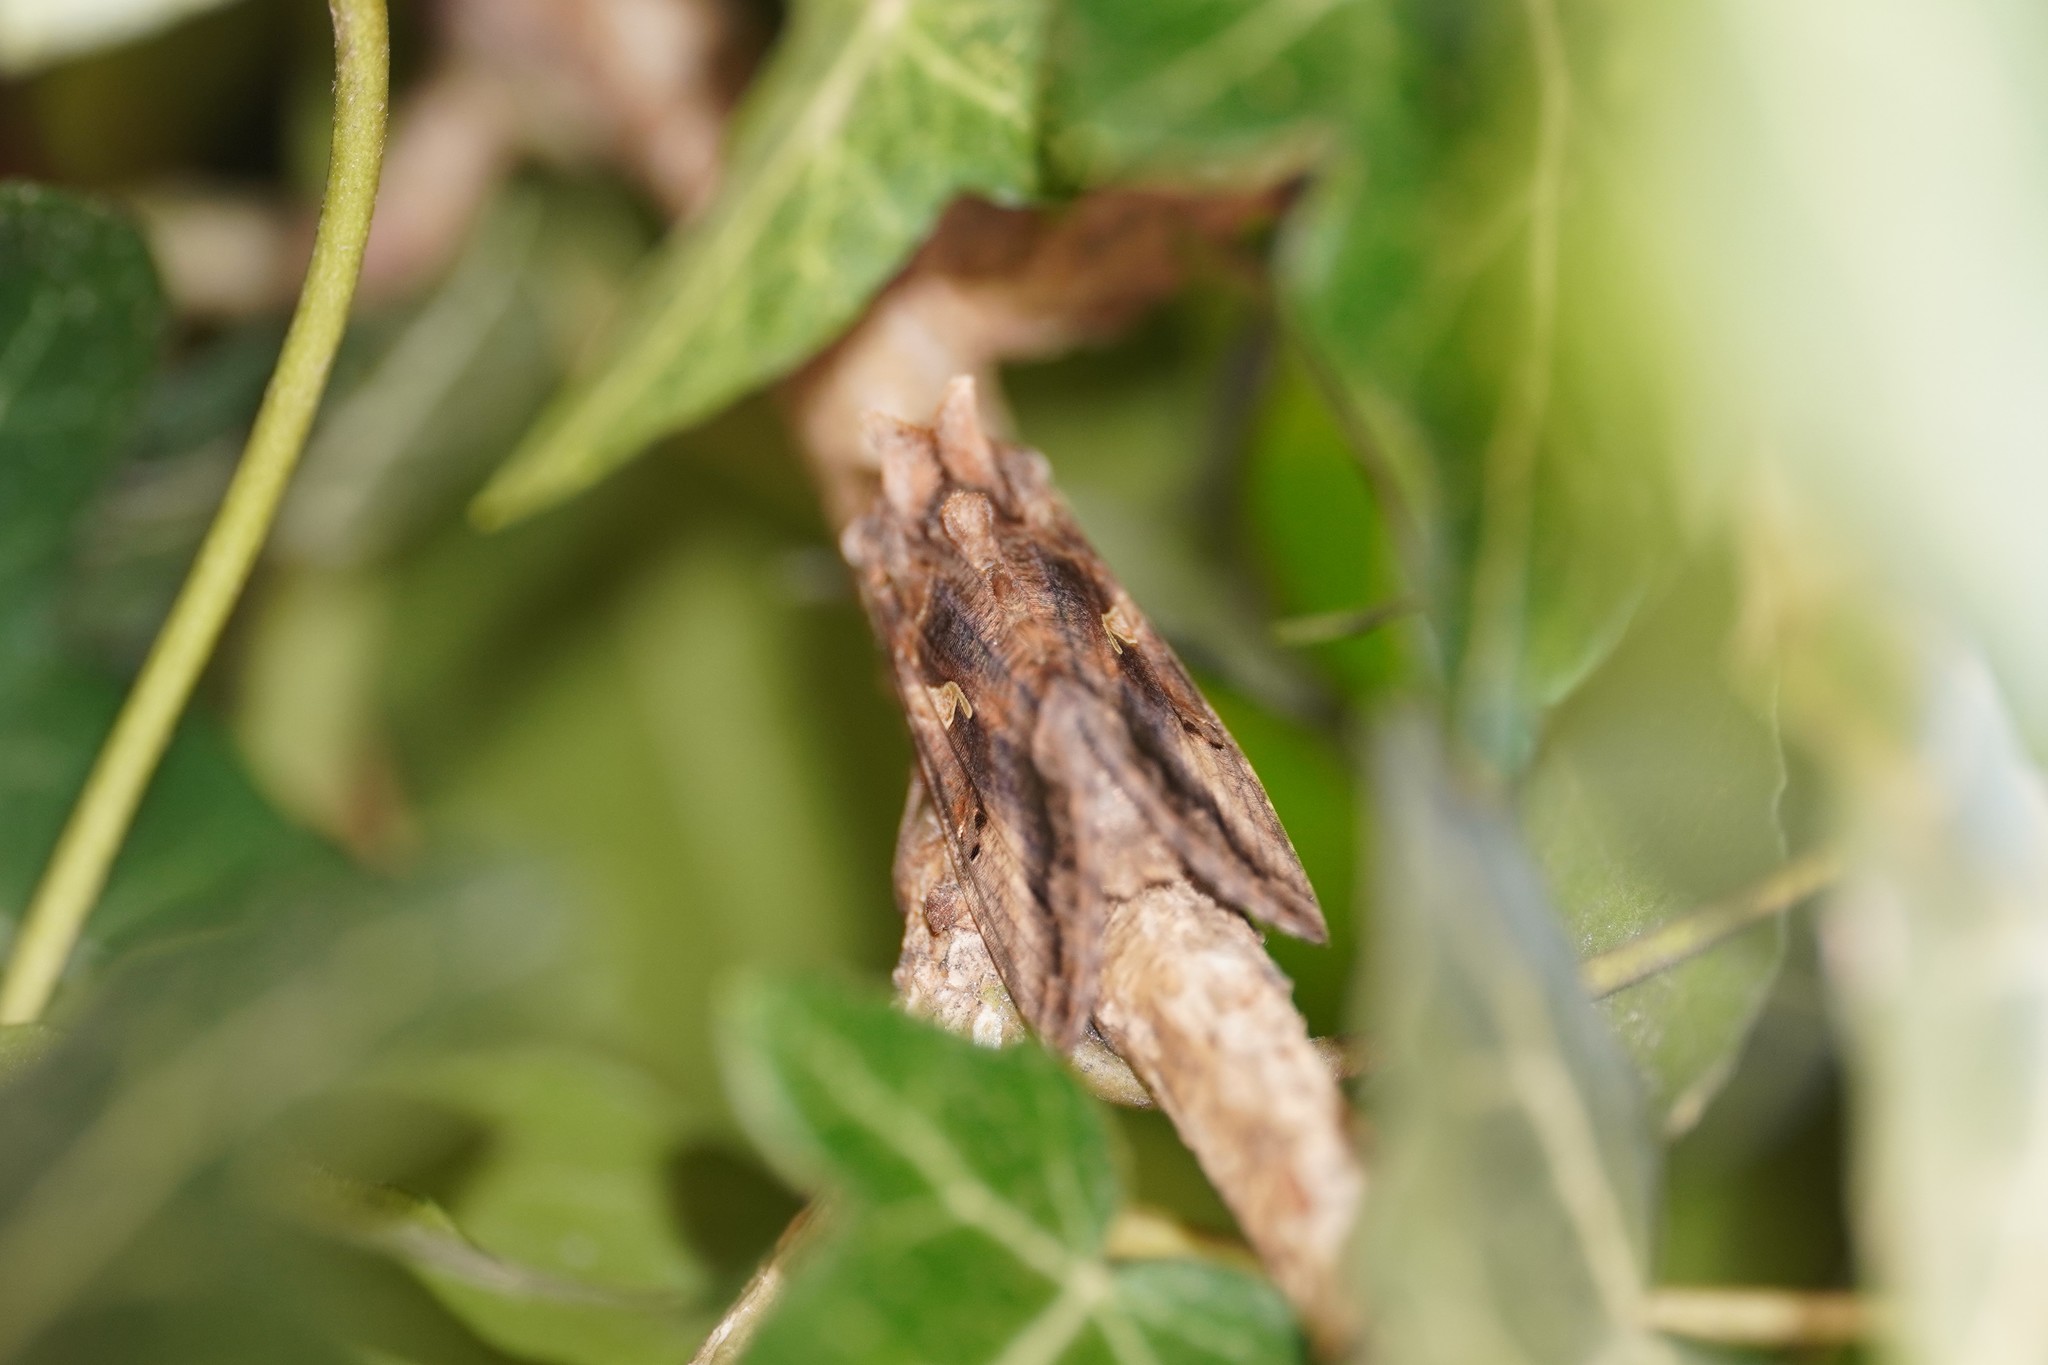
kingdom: Animalia
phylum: Arthropoda
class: Insecta
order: Lepidoptera
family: Noctuidae
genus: Autographa
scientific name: Autographa gamma
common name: Silver y
